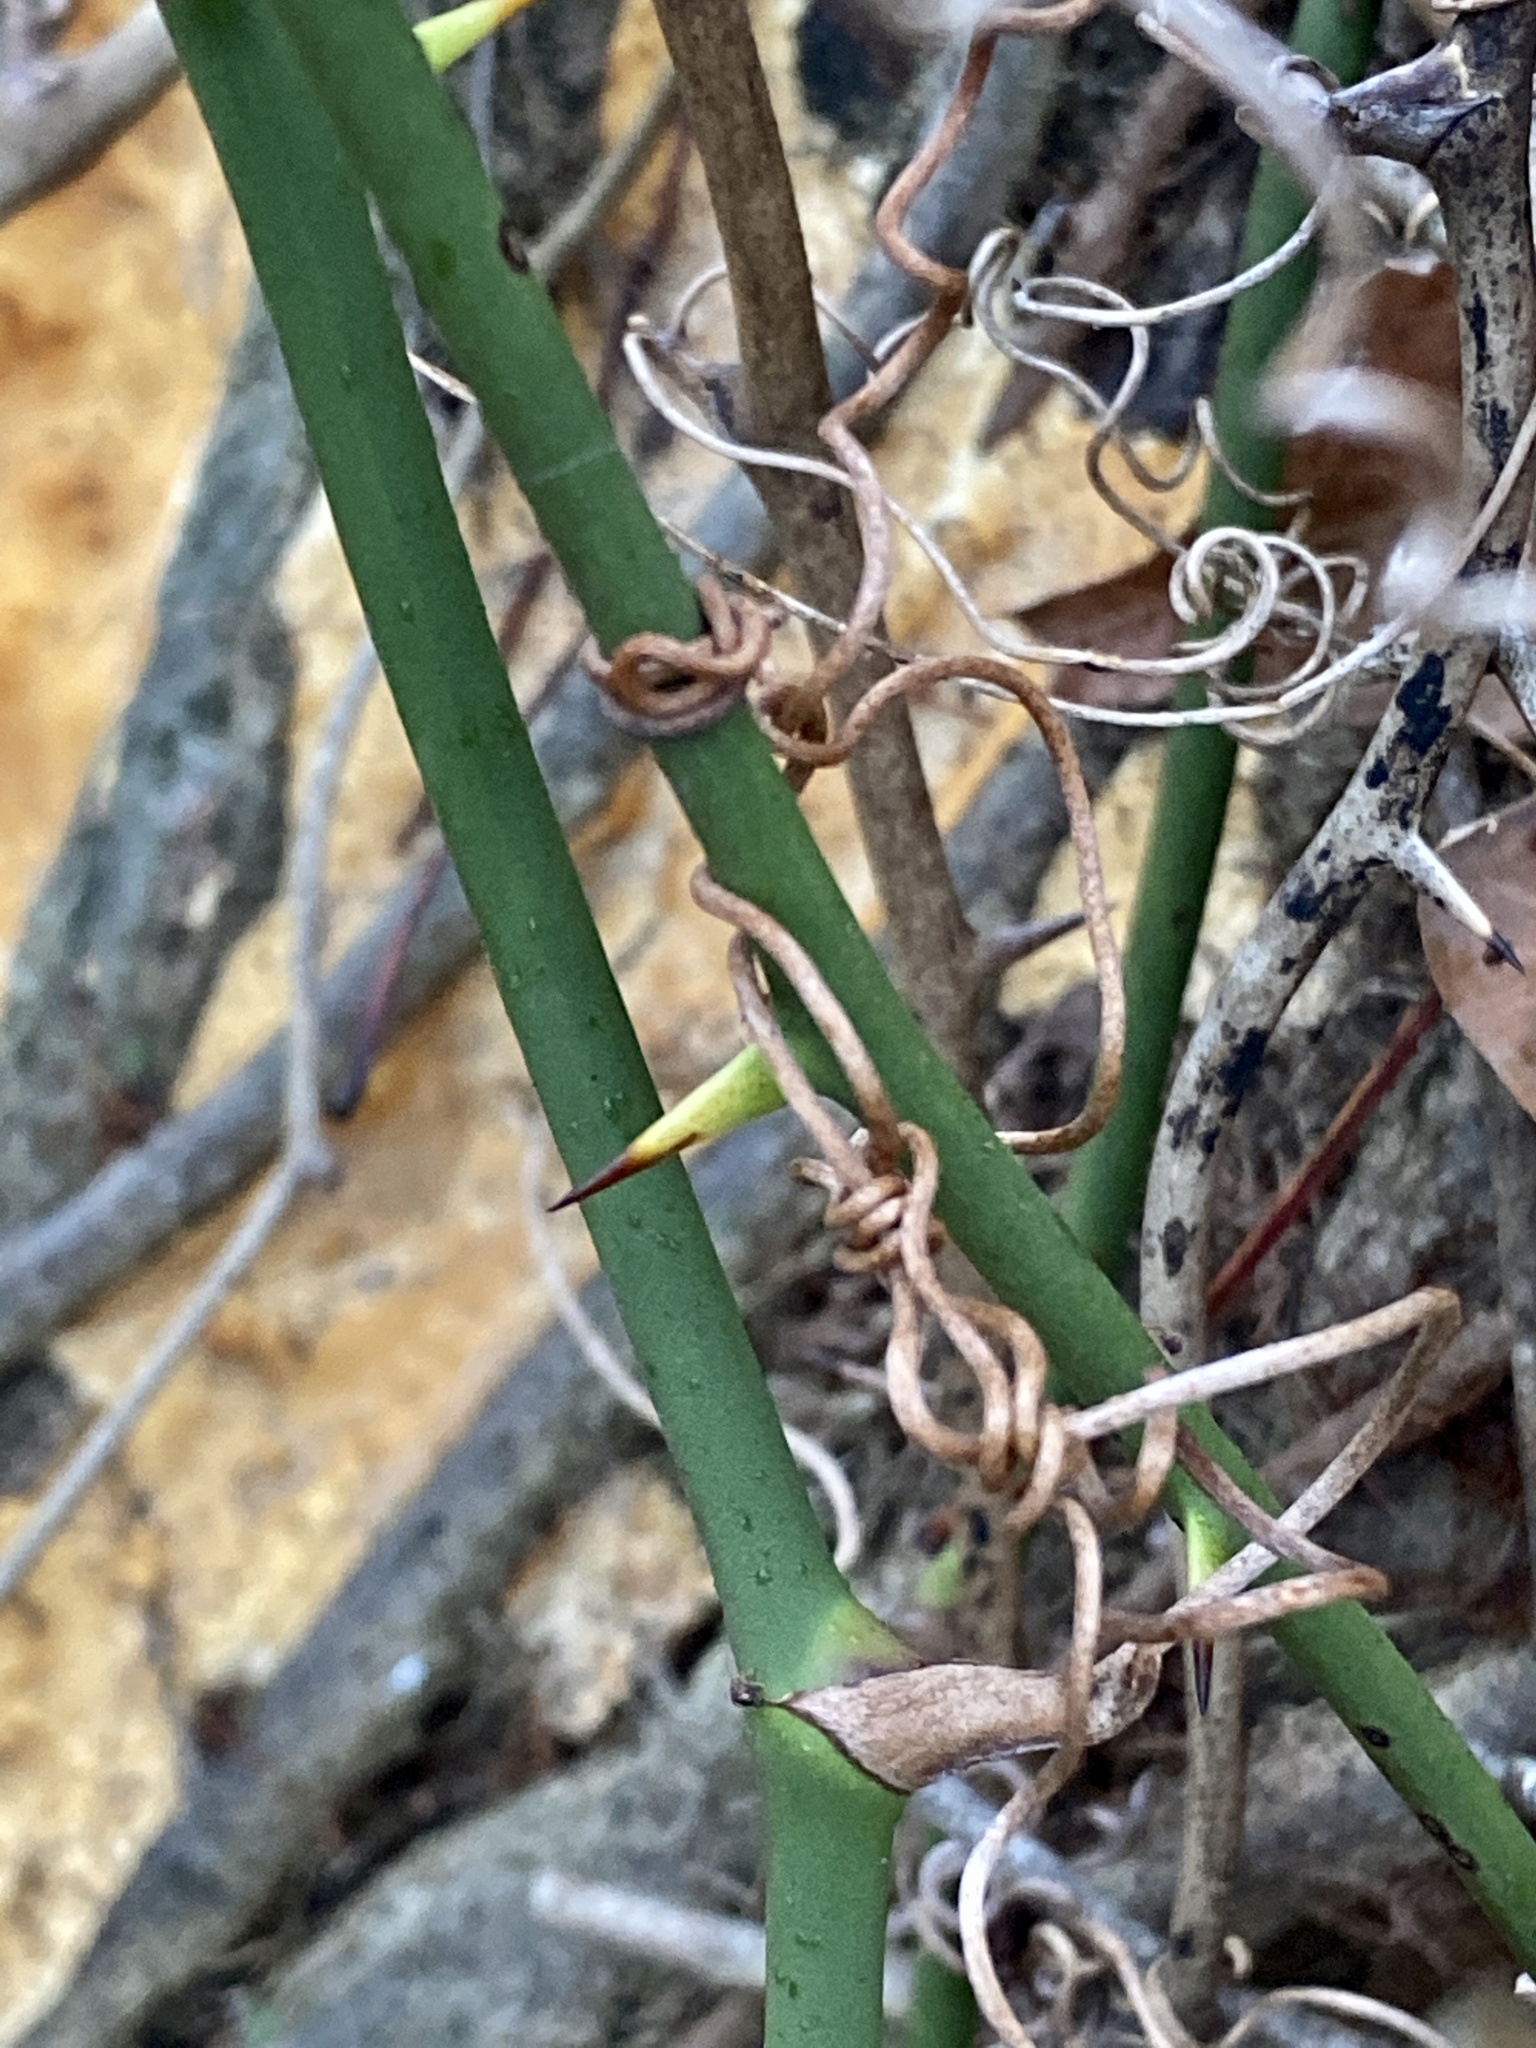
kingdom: Plantae
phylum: Tracheophyta
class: Liliopsida
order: Liliales
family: Smilacaceae
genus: Smilax
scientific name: Smilax rotundifolia
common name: Bullbriar
